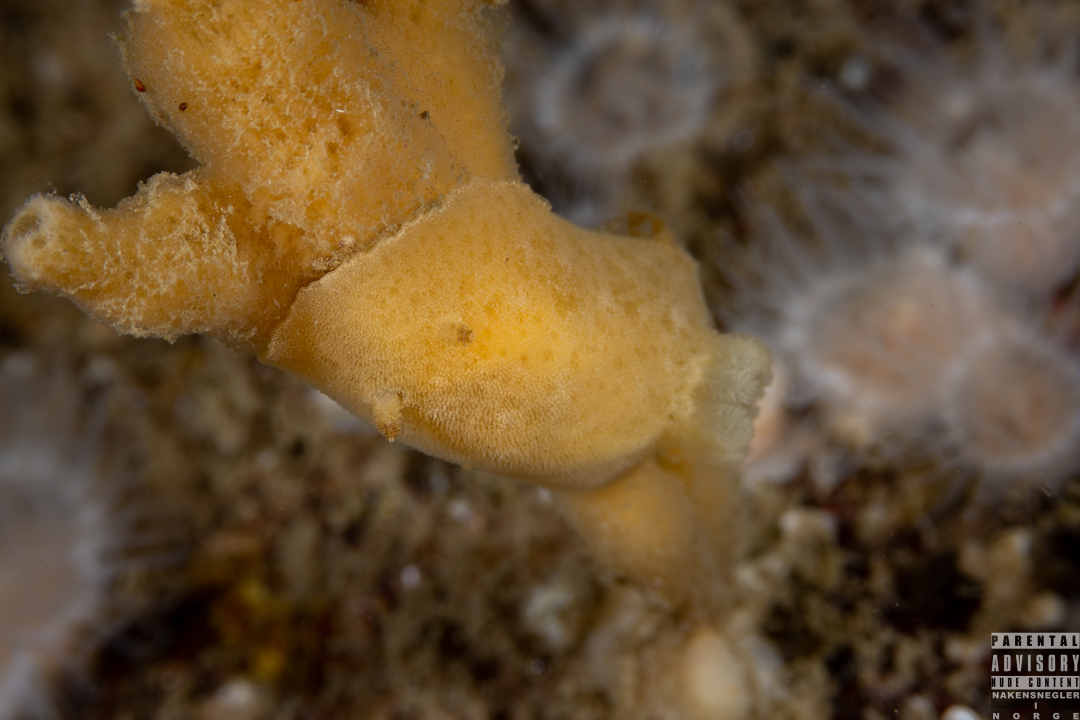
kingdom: Animalia
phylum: Mollusca
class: Gastropoda
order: Nudibranchia
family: Discodorididae
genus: Jorunna
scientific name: Jorunna tomentosa
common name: Grey sea slug
